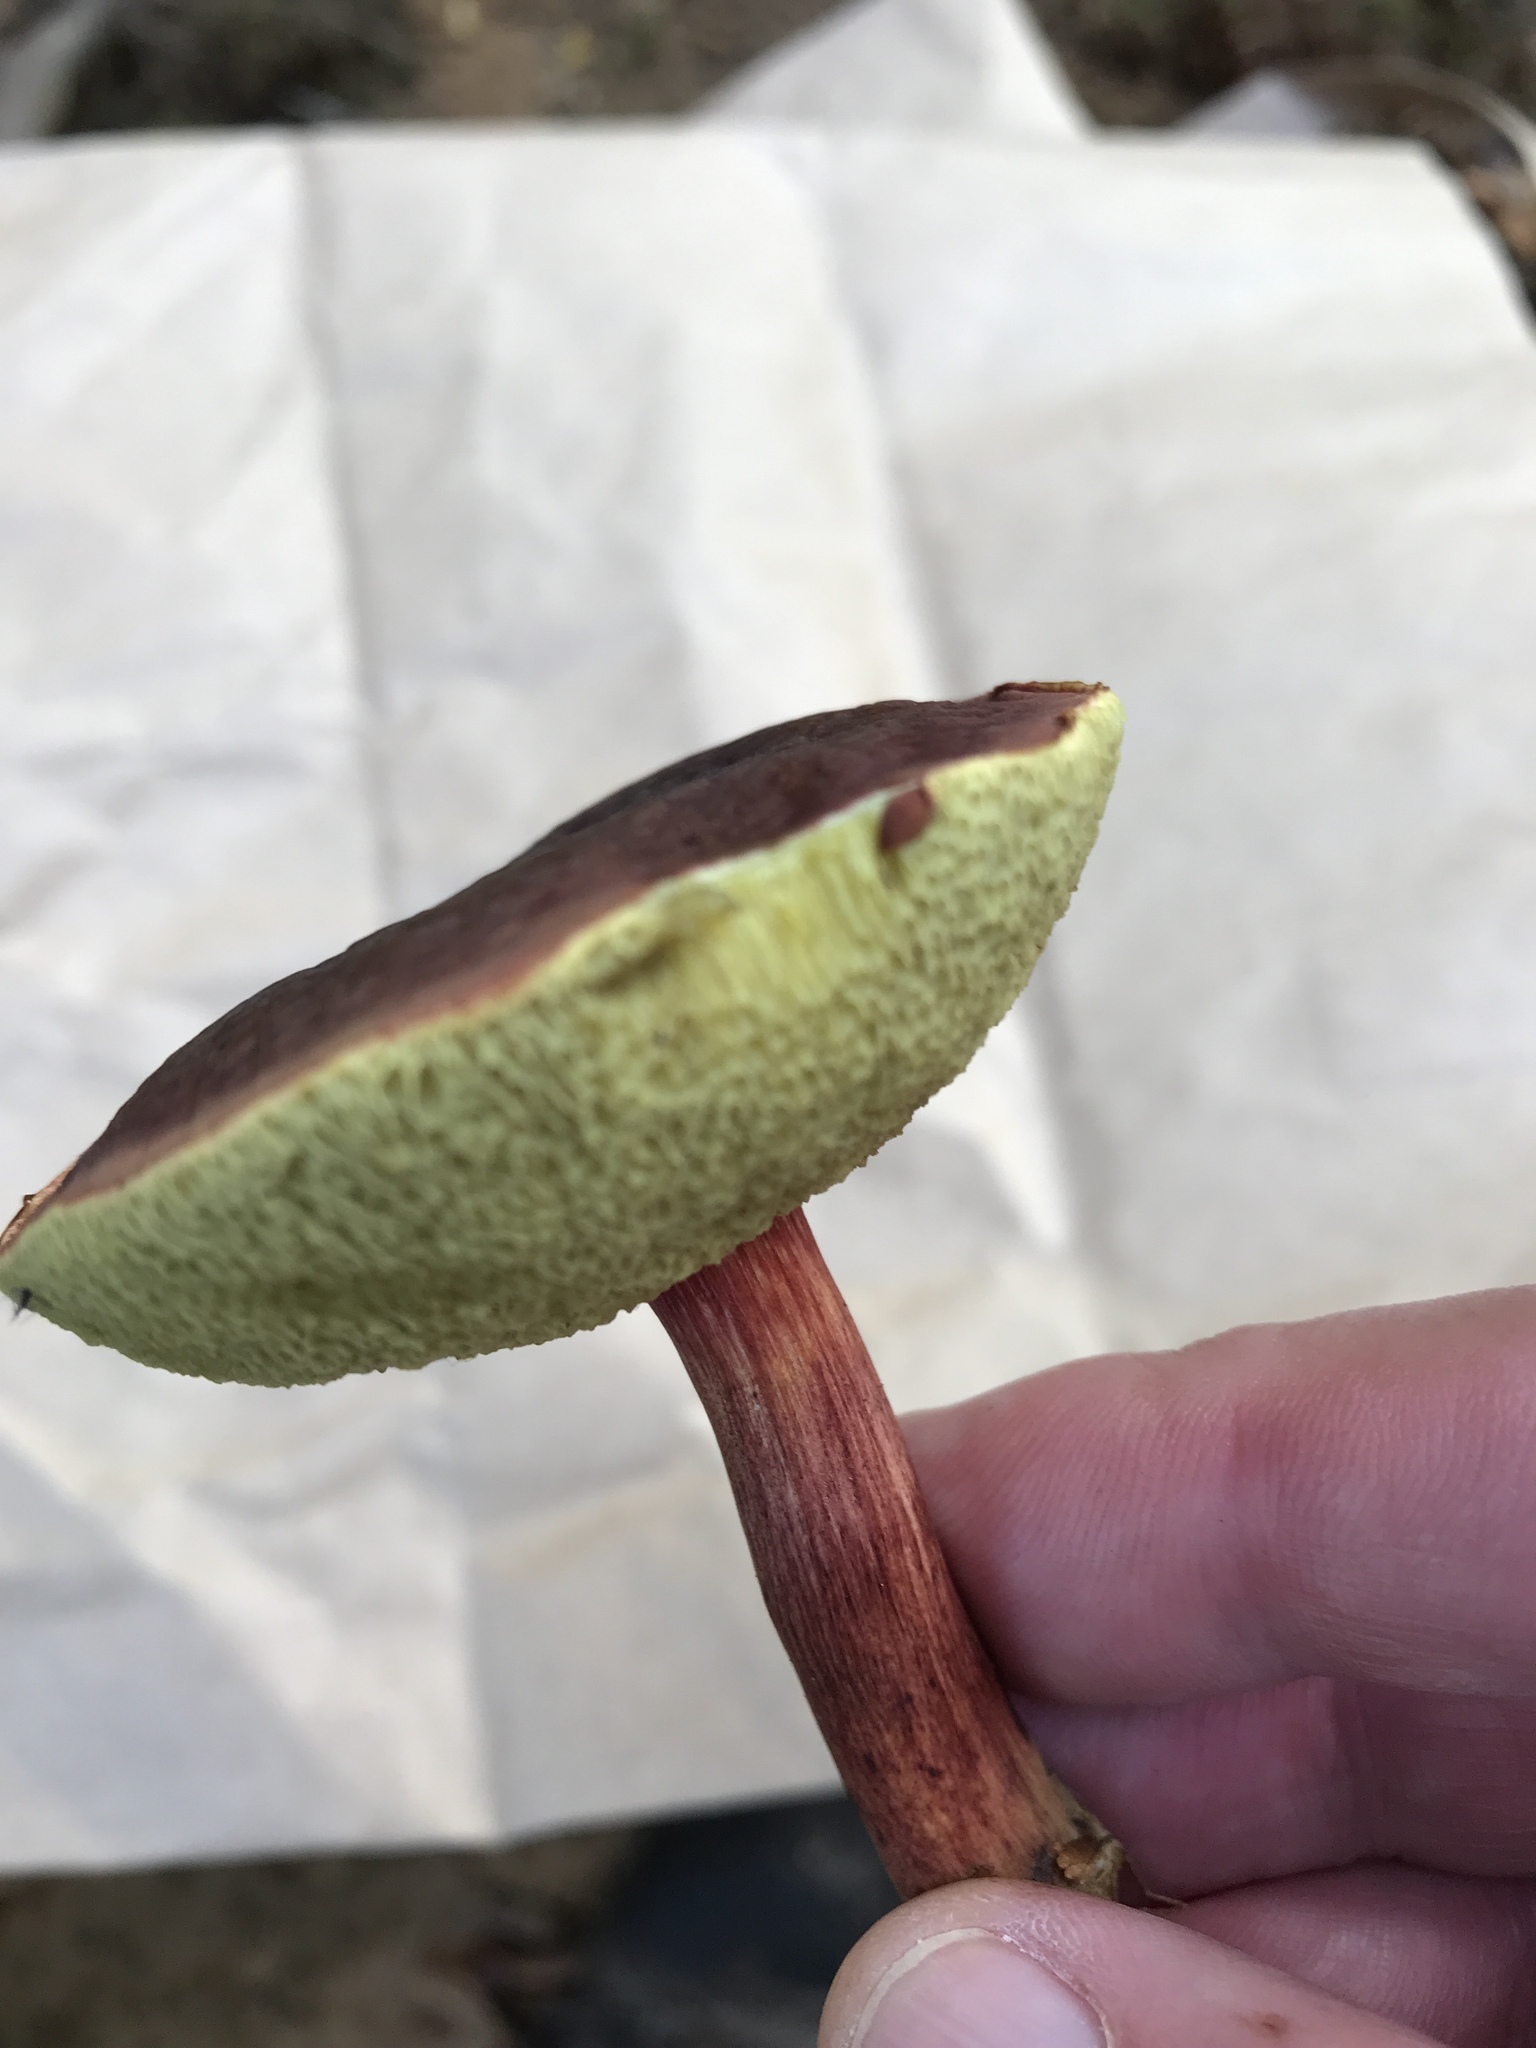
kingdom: Fungi
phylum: Basidiomycota
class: Agaricomycetes
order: Boletales
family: Boletaceae
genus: Xerocomellus
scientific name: Xerocomellus chrysenteron
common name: Red-cracking bolete
